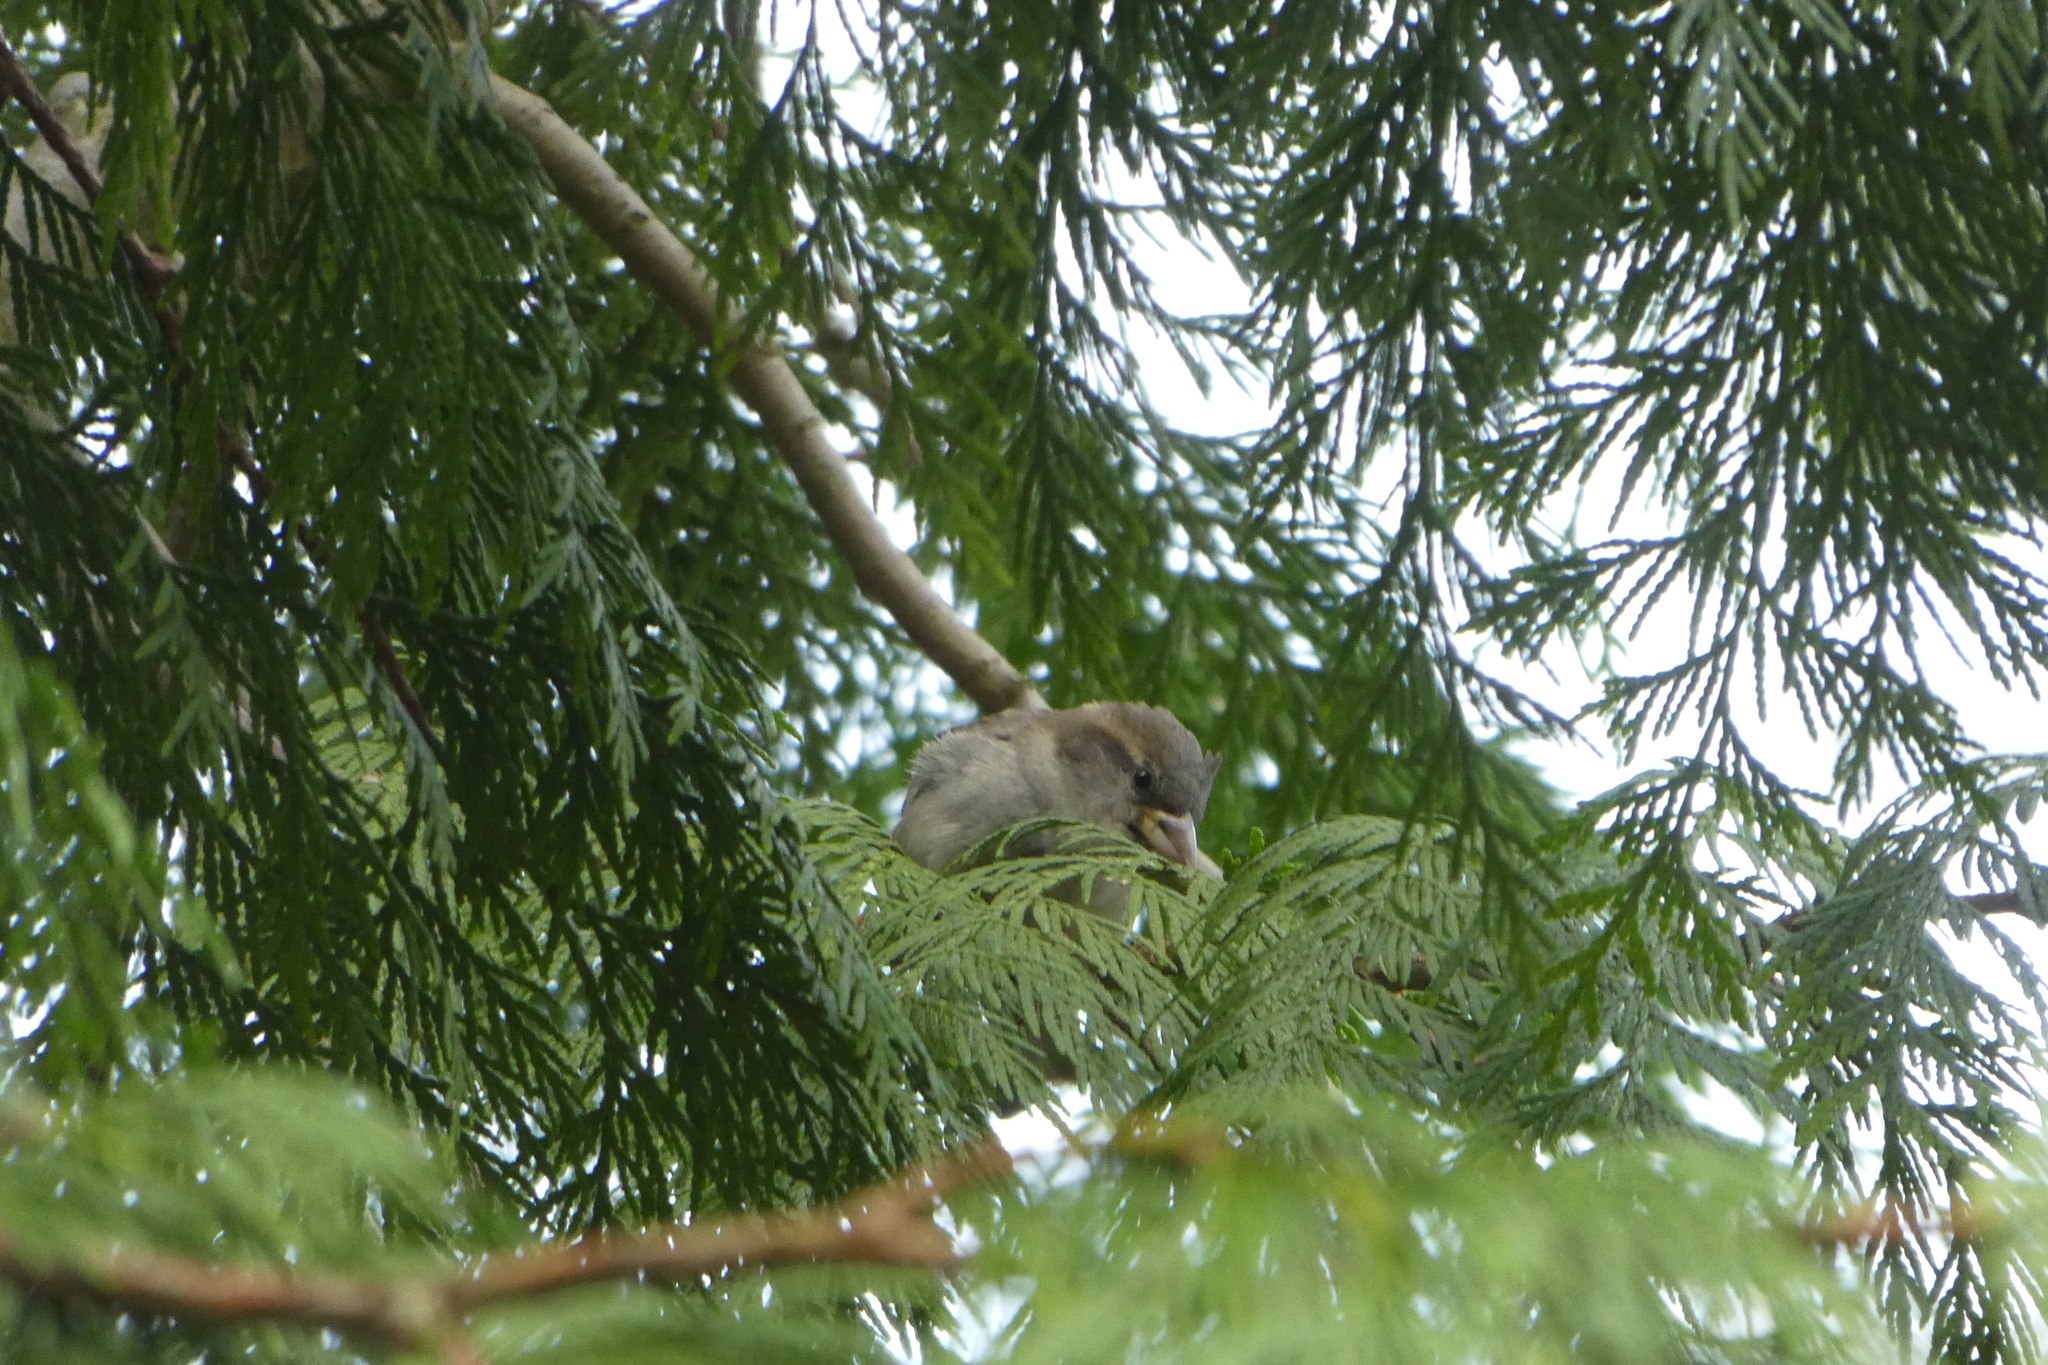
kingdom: Animalia
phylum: Chordata
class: Aves
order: Passeriformes
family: Passeridae
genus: Passer
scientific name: Passer domesticus
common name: House sparrow
